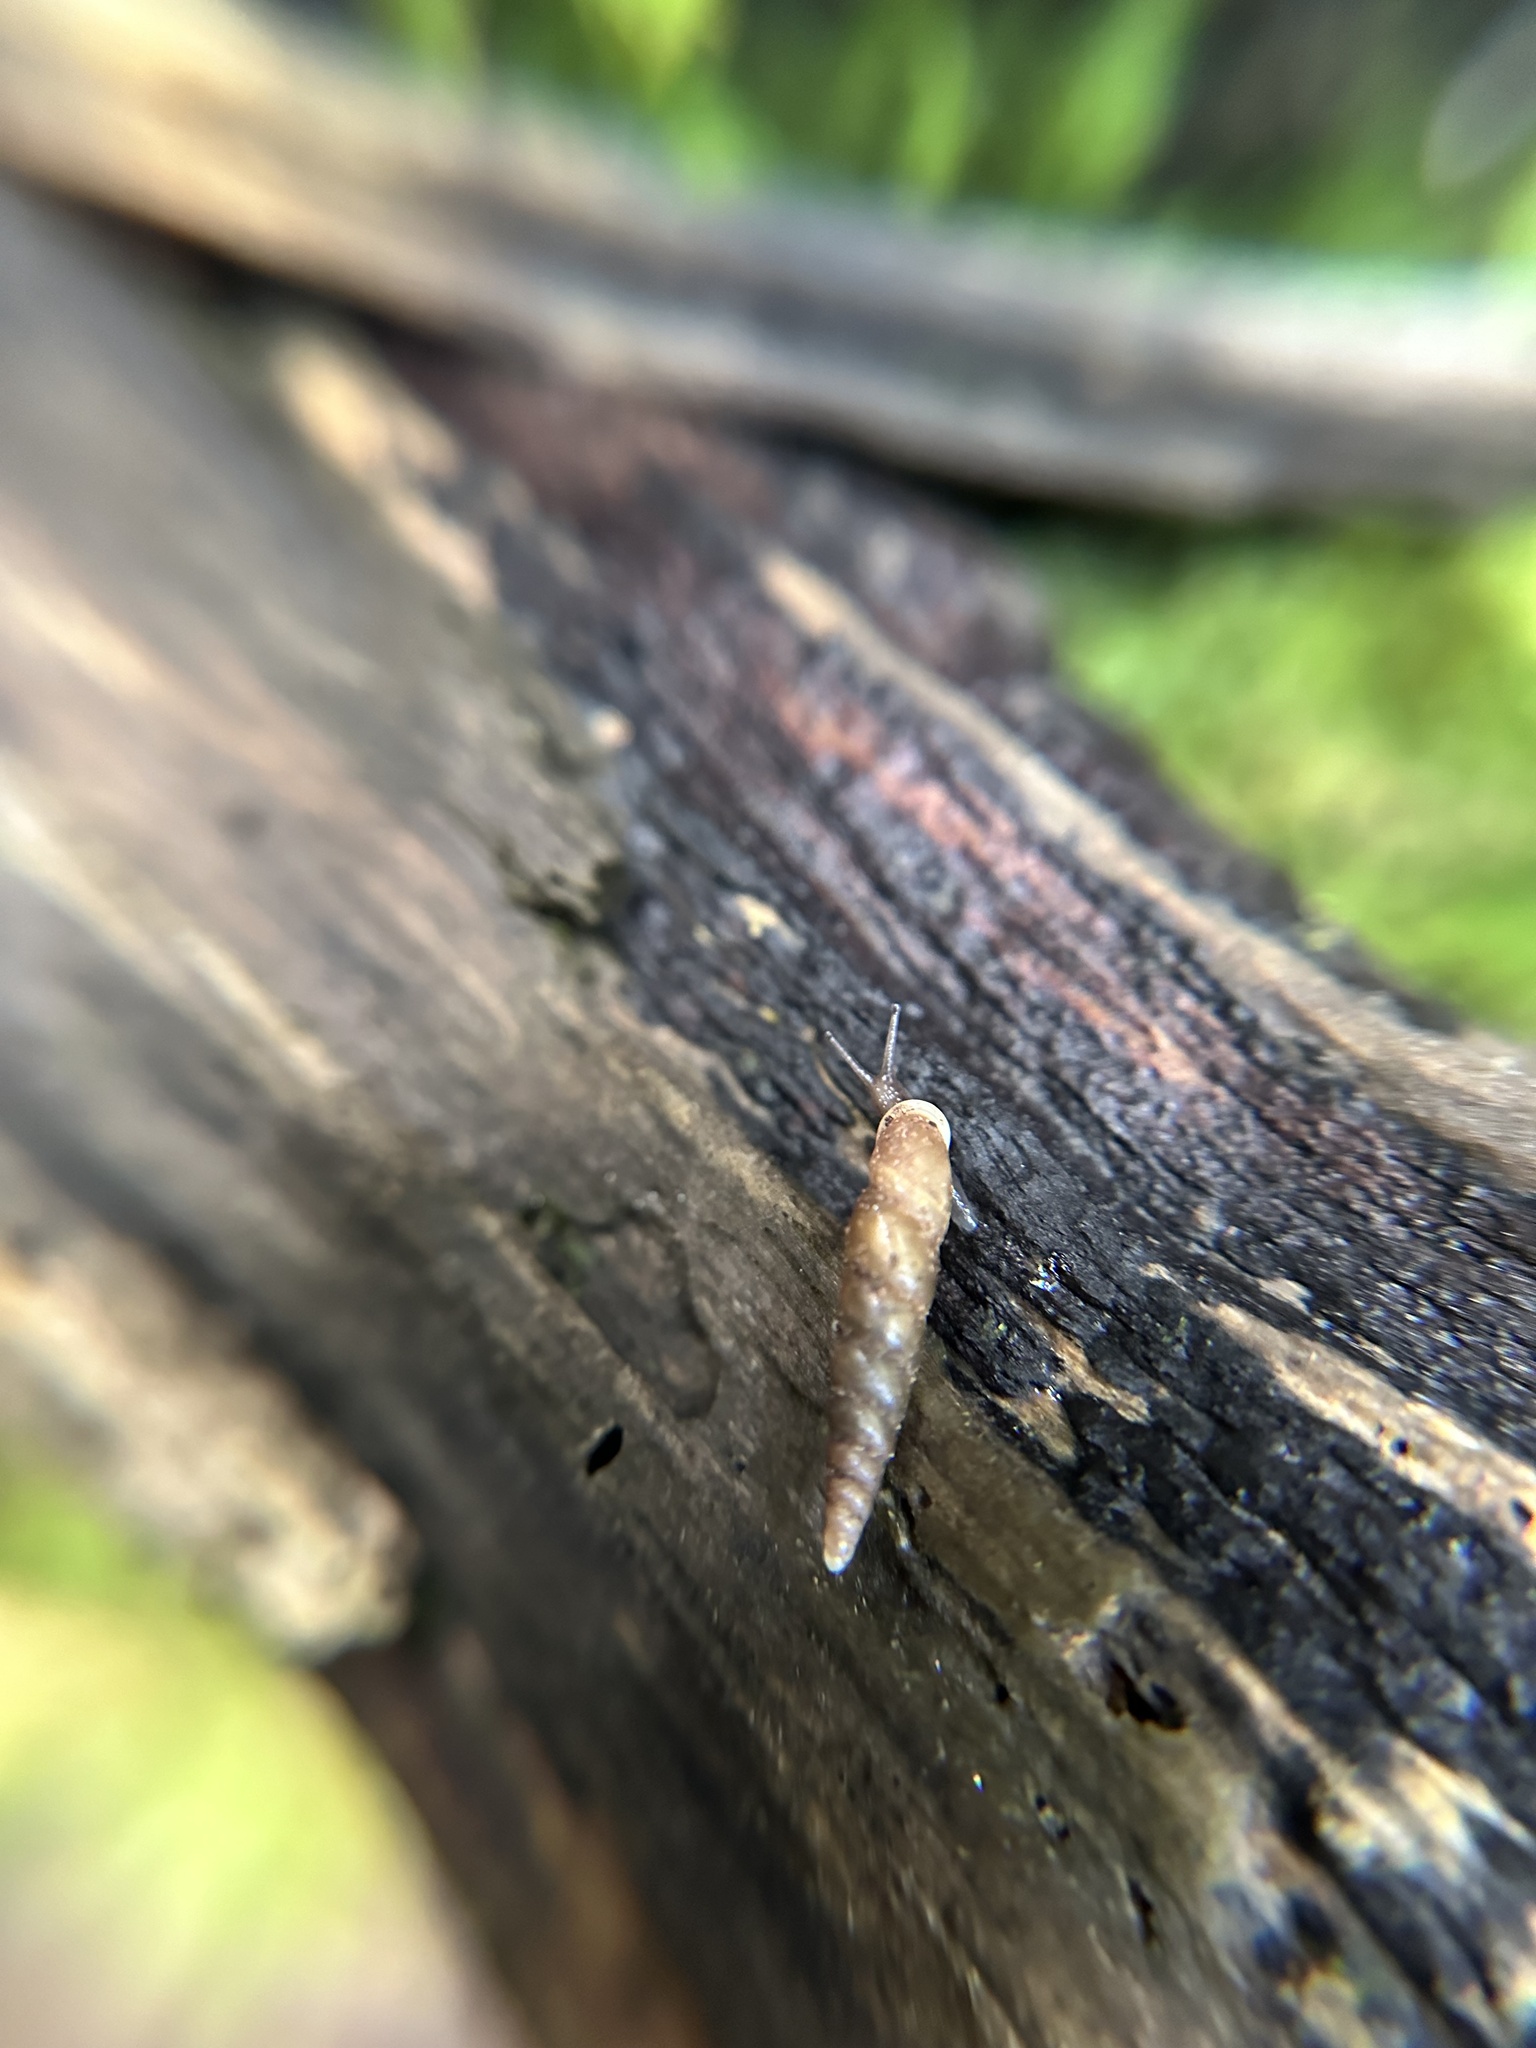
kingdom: Animalia
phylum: Mollusca
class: Gastropoda
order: Stylommatophora
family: Clausiliidae
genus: Tauphaedusa
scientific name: Tauphaedusa tau
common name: Snail
